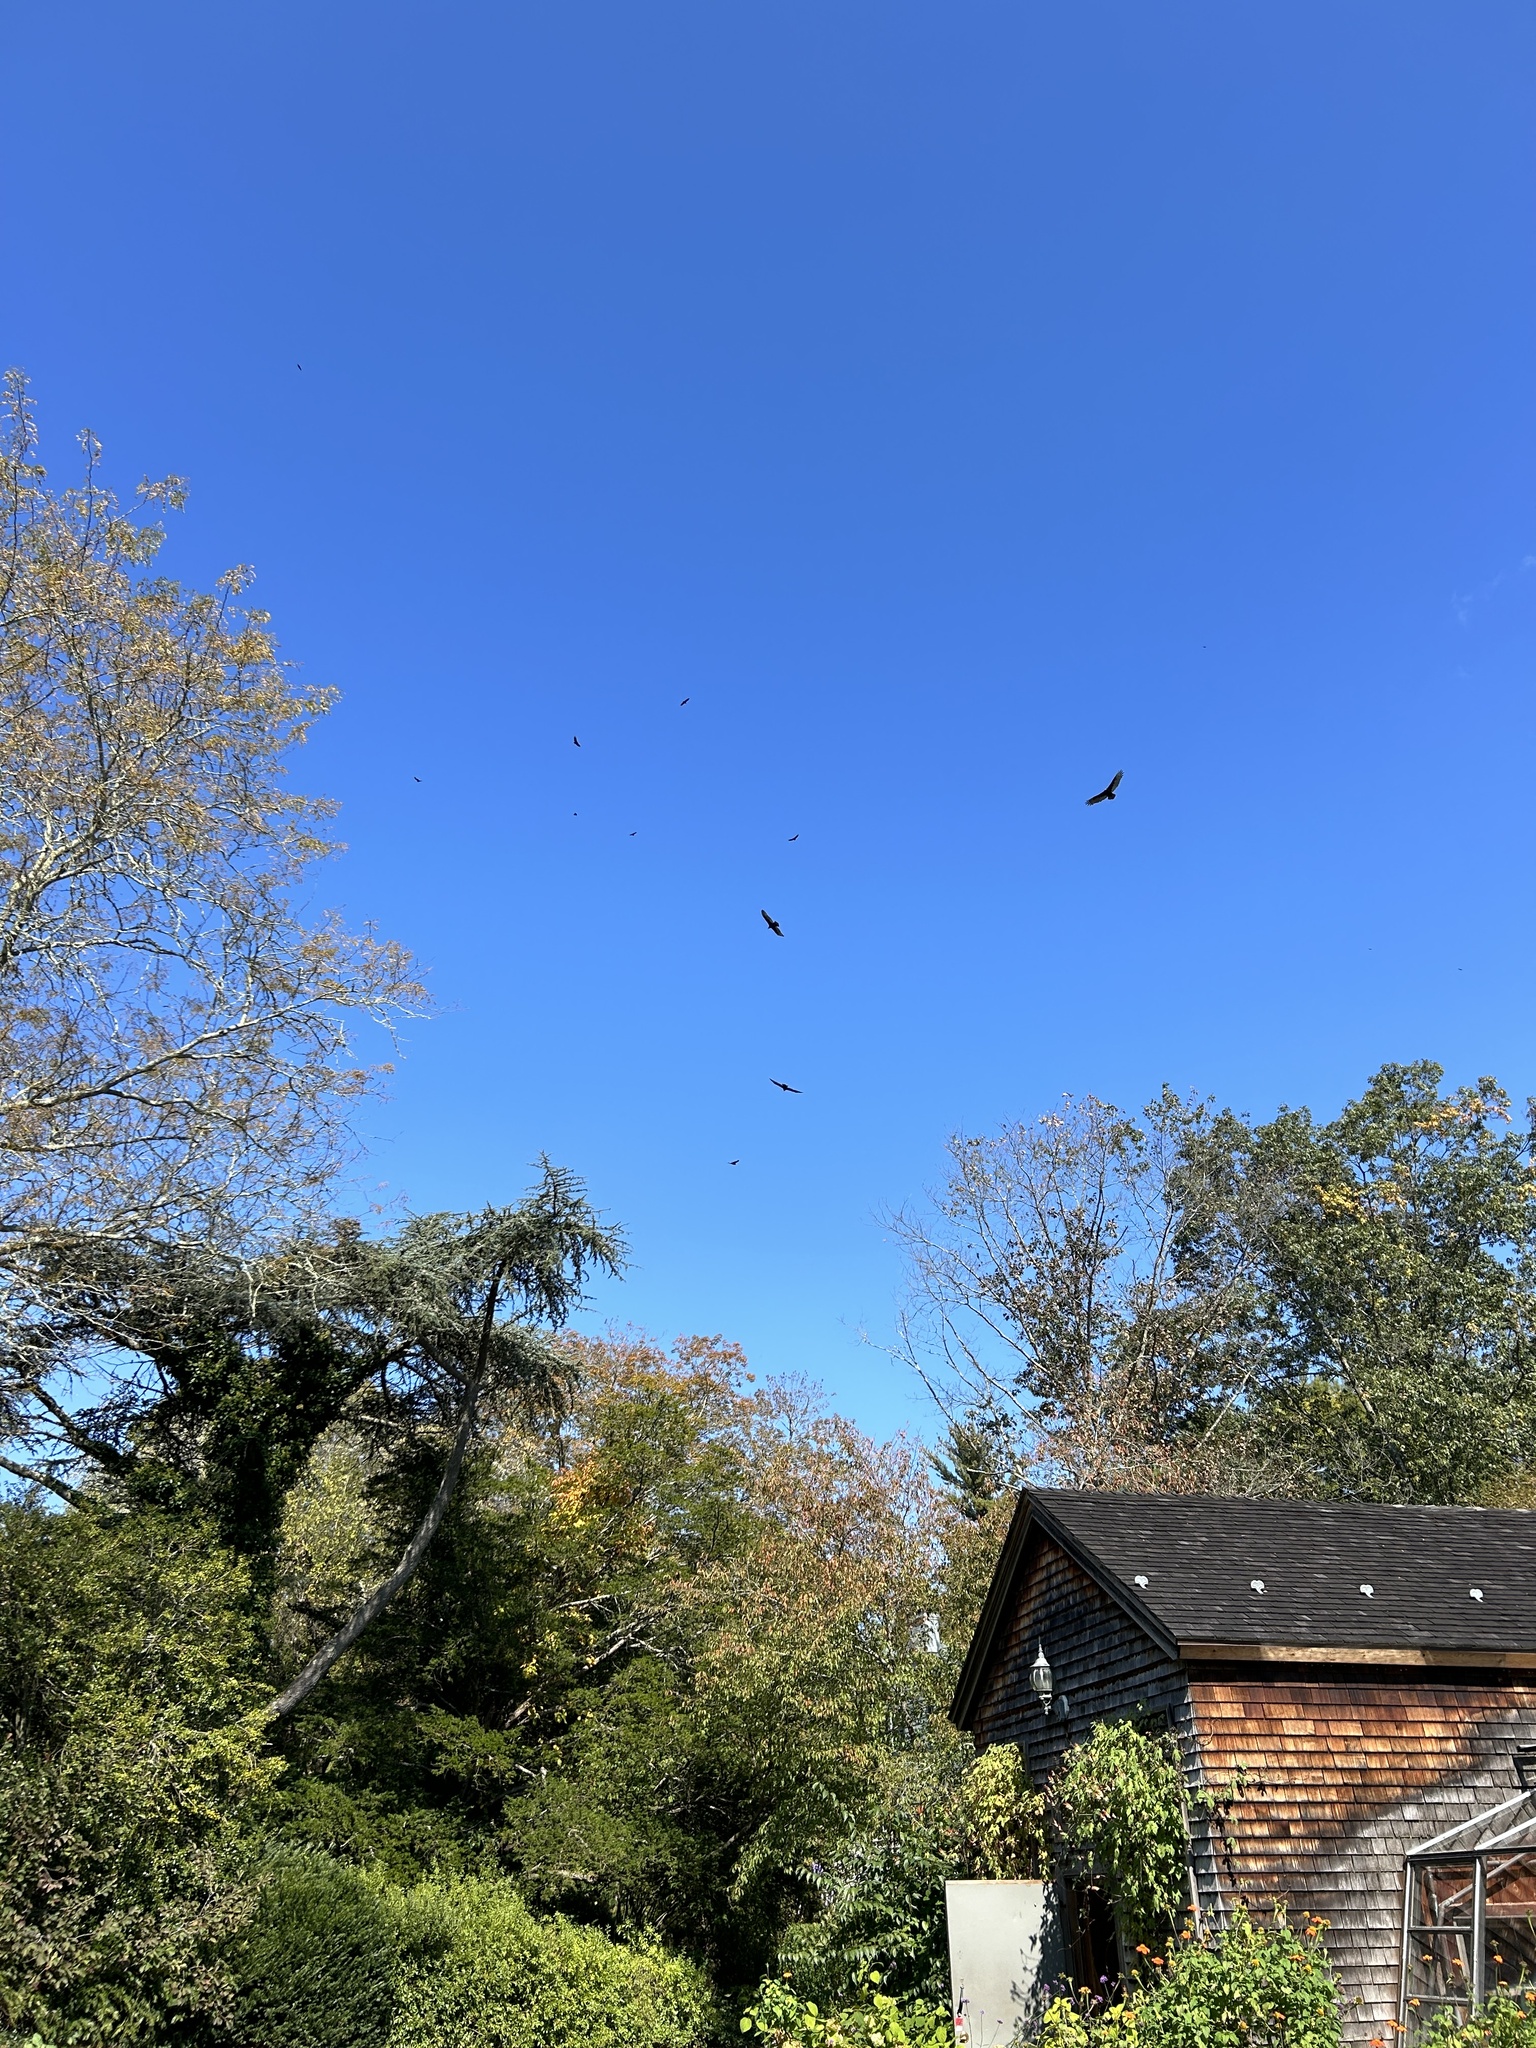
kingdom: Animalia
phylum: Chordata
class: Aves
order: Accipitriformes
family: Cathartidae
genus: Cathartes
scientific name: Cathartes aura
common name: Turkey vulture
